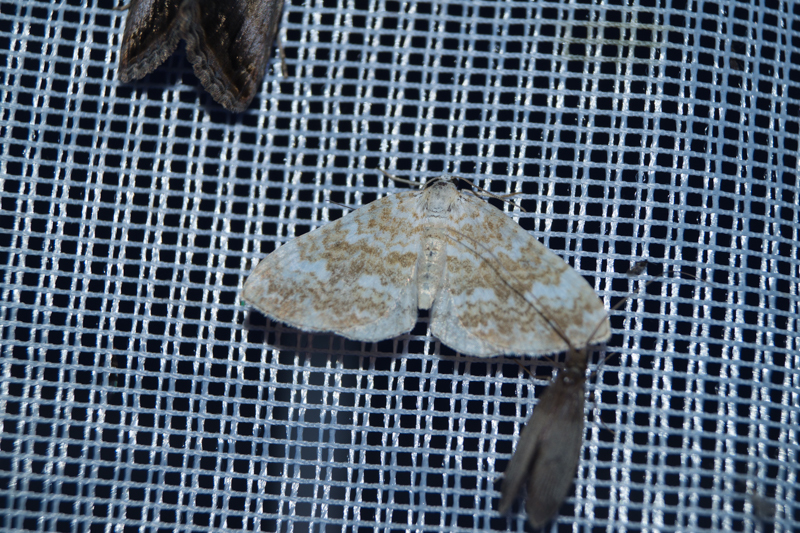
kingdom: Animalia
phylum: Arthropoda
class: Insecta
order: Lepidoptera
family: Geometridae
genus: Perizoma
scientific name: Perizoma flavofasciata
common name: Sandy carpet
